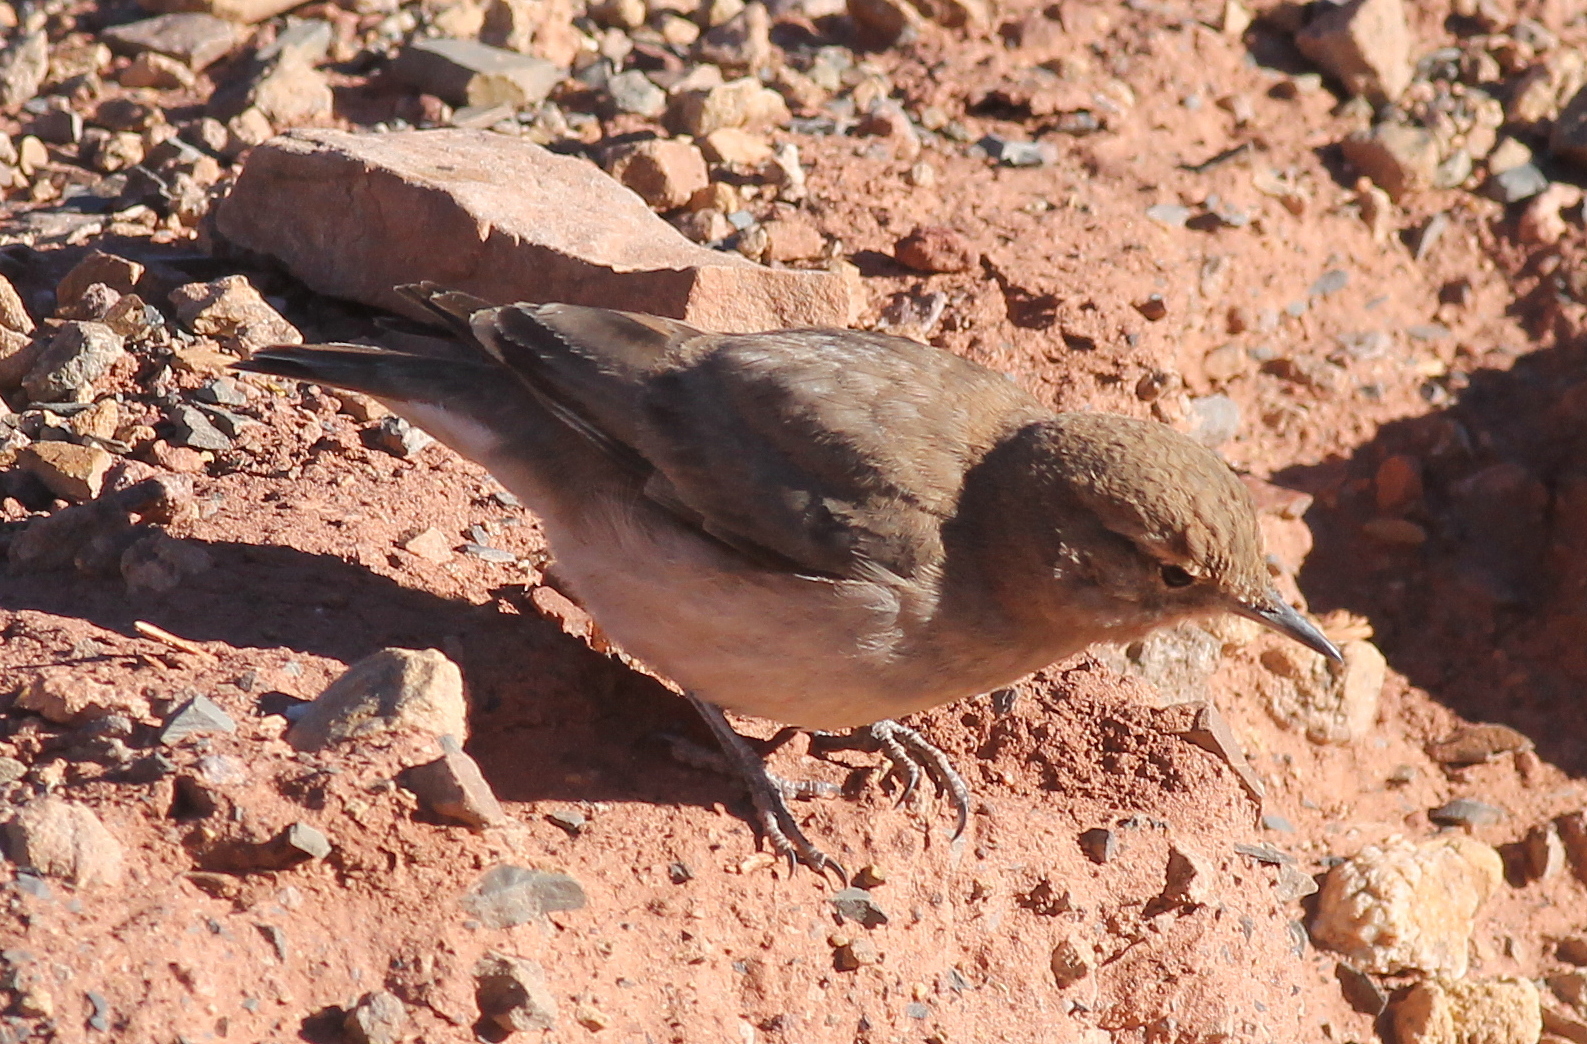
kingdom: Animalia
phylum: Chordata
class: Aves
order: Passeriformes
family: Furnariidae
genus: Geositta
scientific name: Geositta rufipennis
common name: Rufous-banded miner
